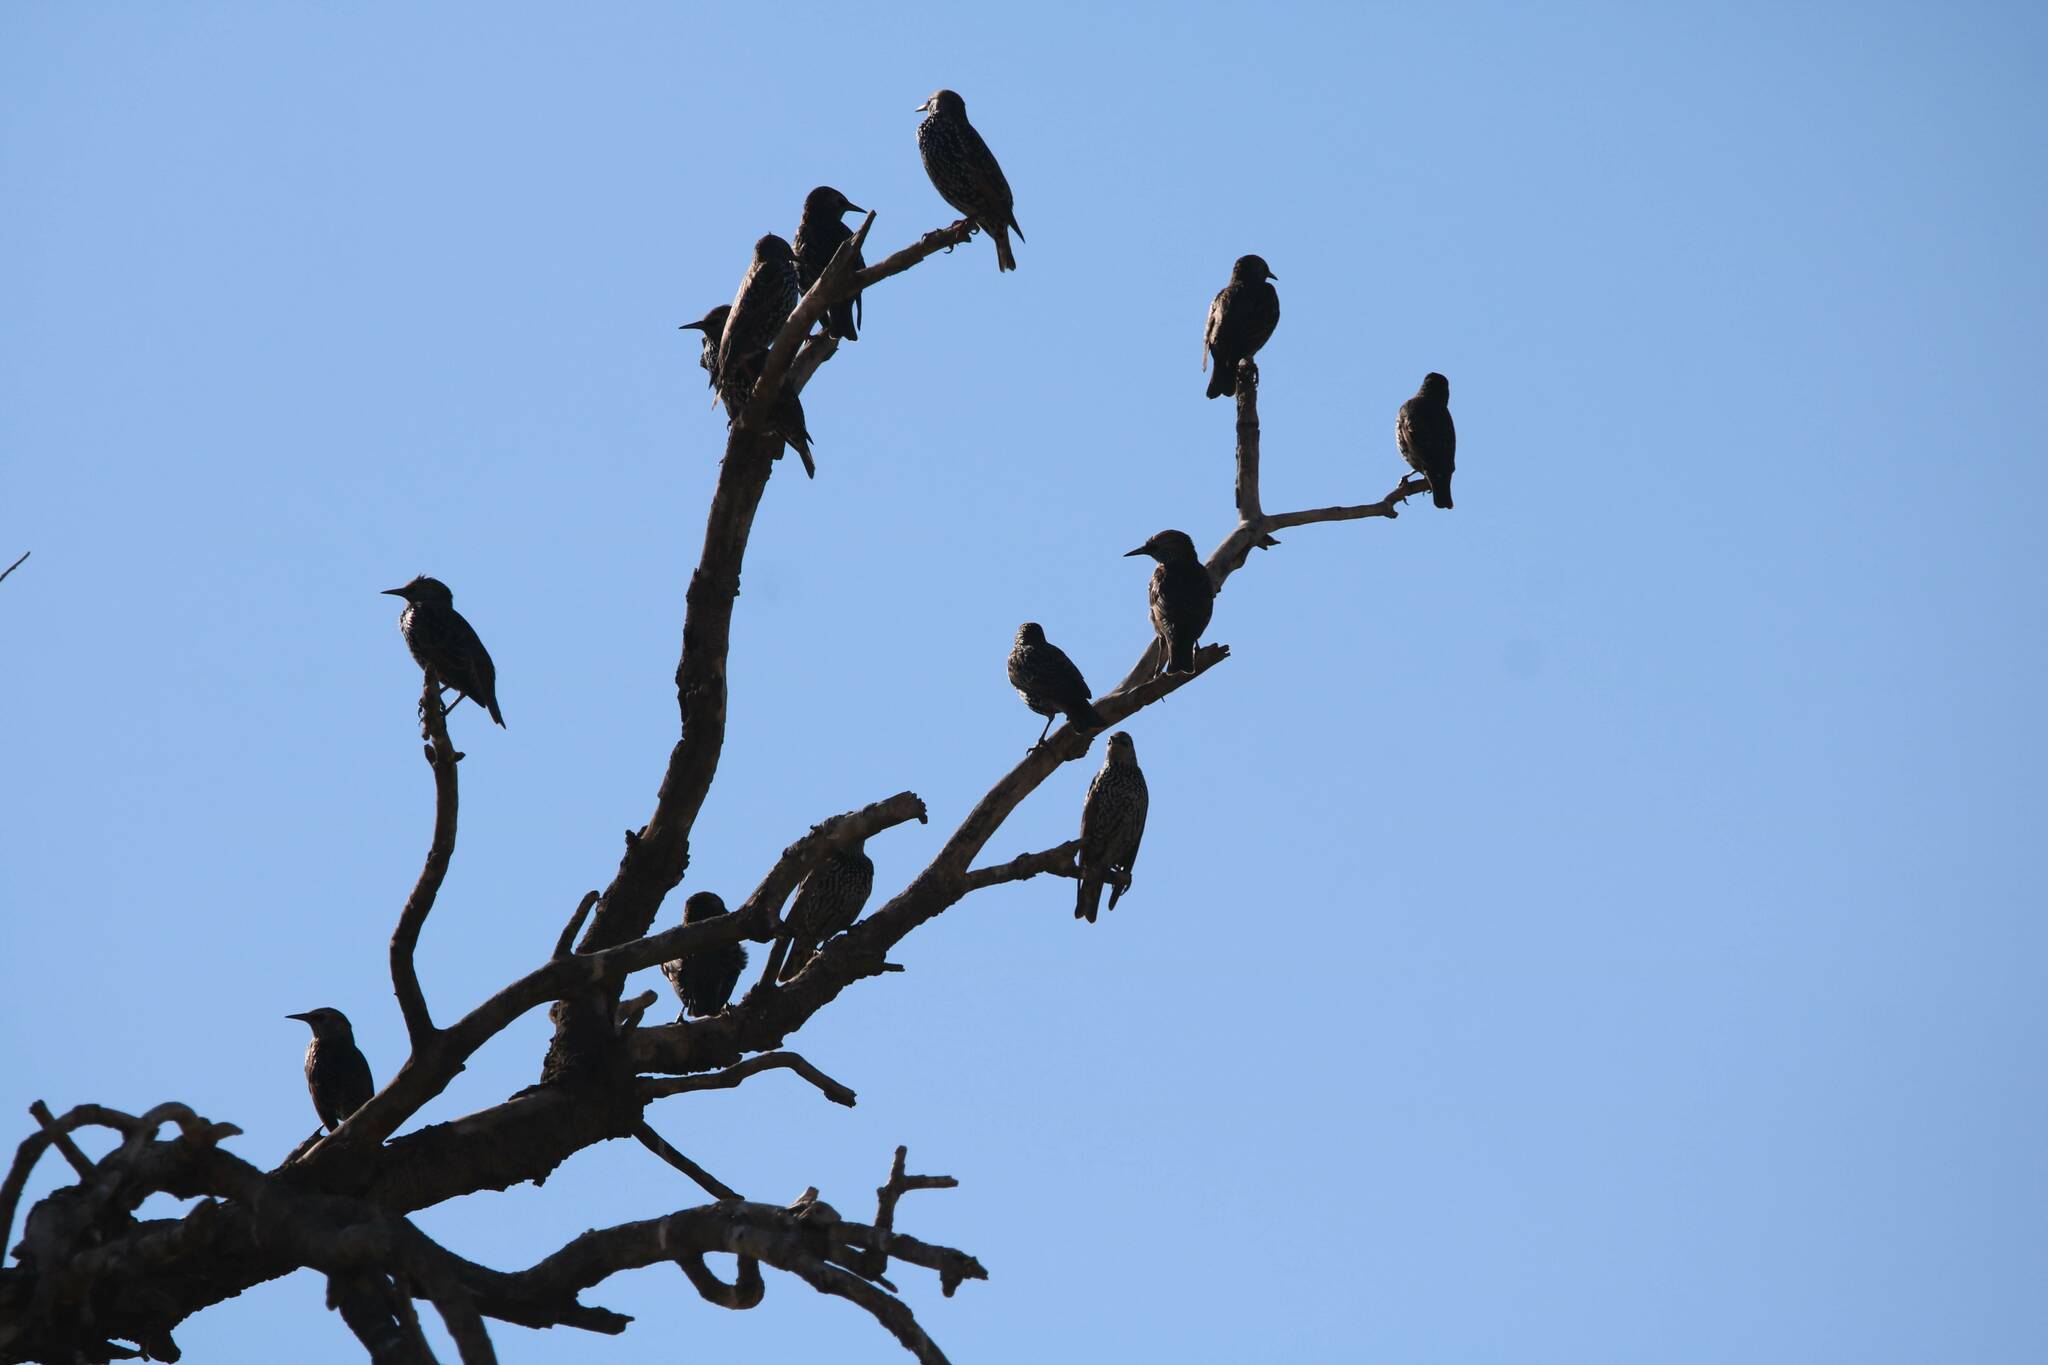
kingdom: Animalia
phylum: Chordata
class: Aves
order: Passeriformes
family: Sturnidae
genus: Sturnus
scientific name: Sturnus vulgaris
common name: Common starling
